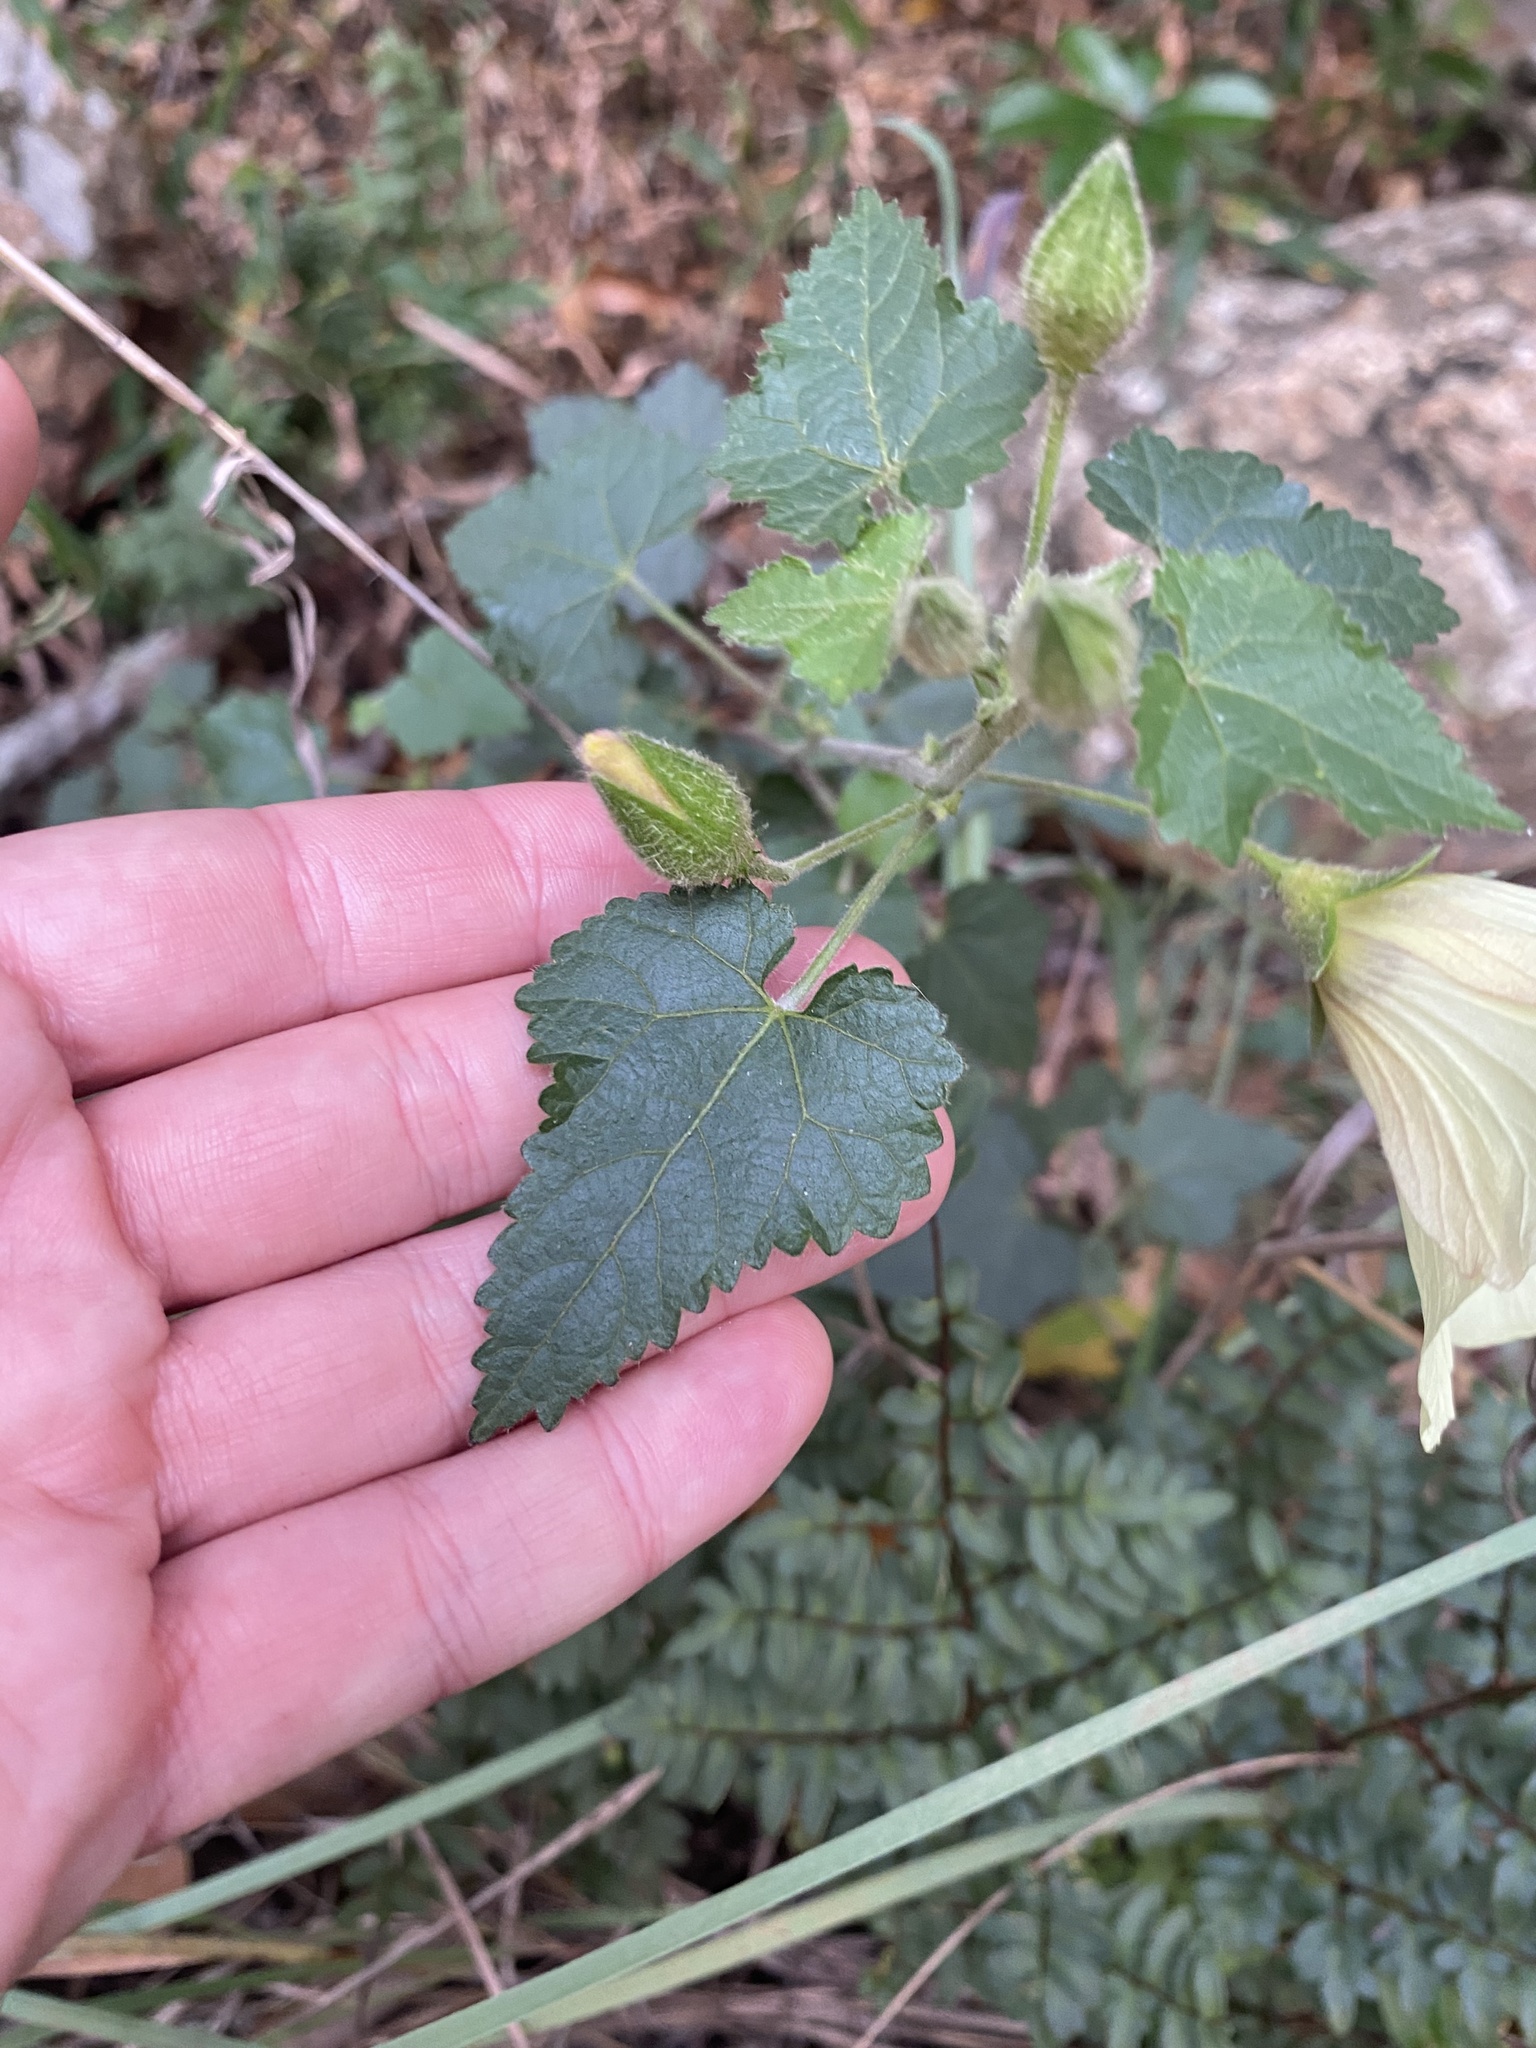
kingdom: Plantae
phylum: Tracheophyta
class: Magnoliopsida
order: Malvales
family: Malvaceae
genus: Hibiscus
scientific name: Hibiscus engleri
